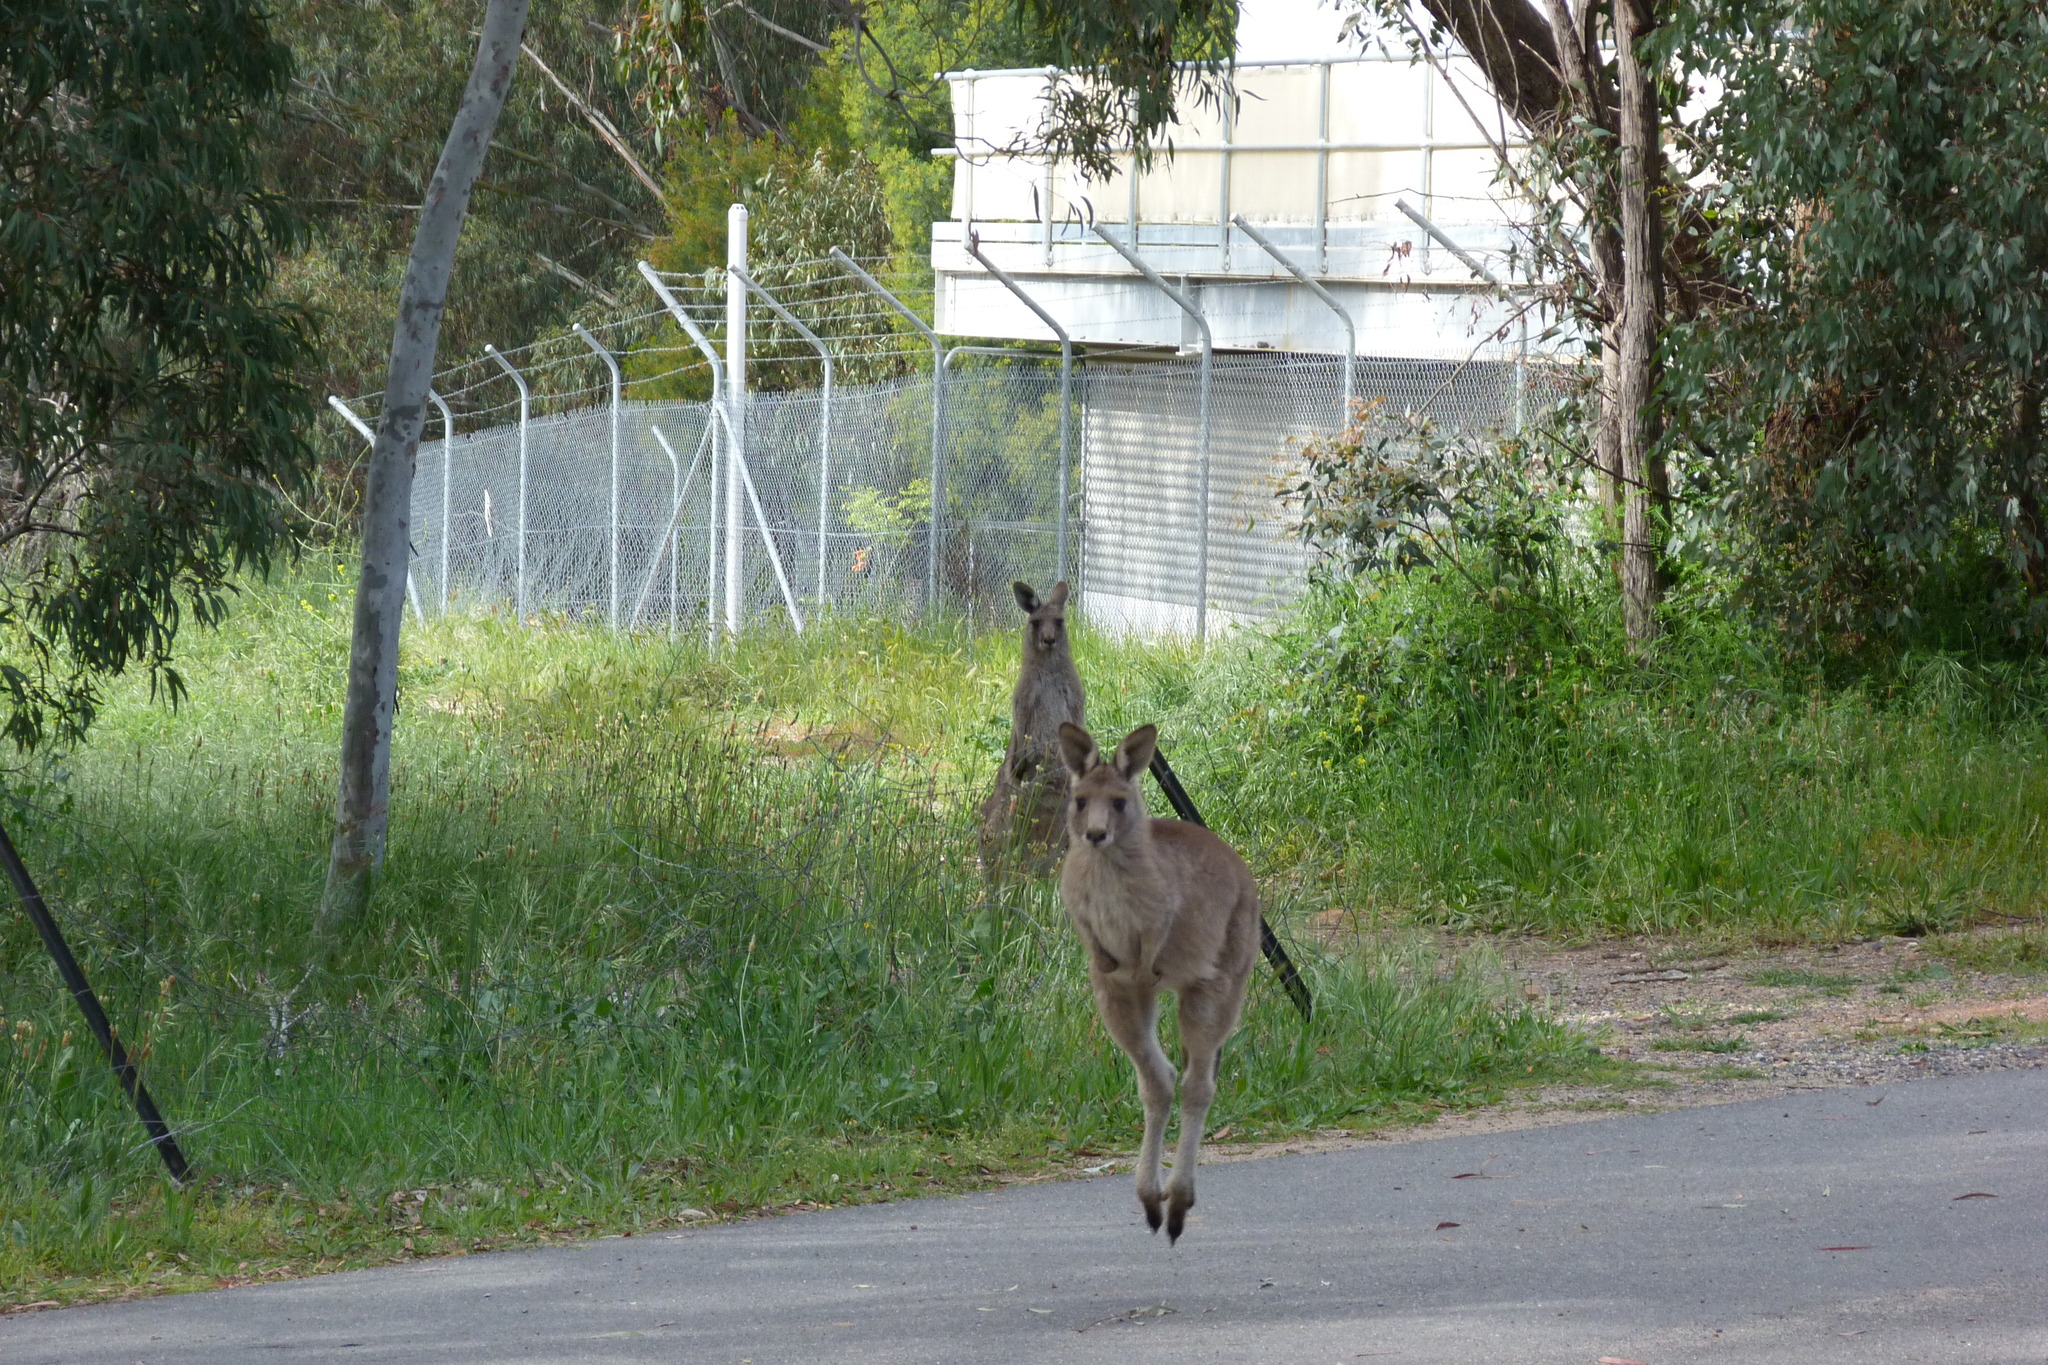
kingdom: Animalia
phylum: Chordata
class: Mammalia
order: Diprotodontia
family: Macropodidae
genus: Macropus
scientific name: Macropus giganteus
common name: Eastern grey kangaroo
